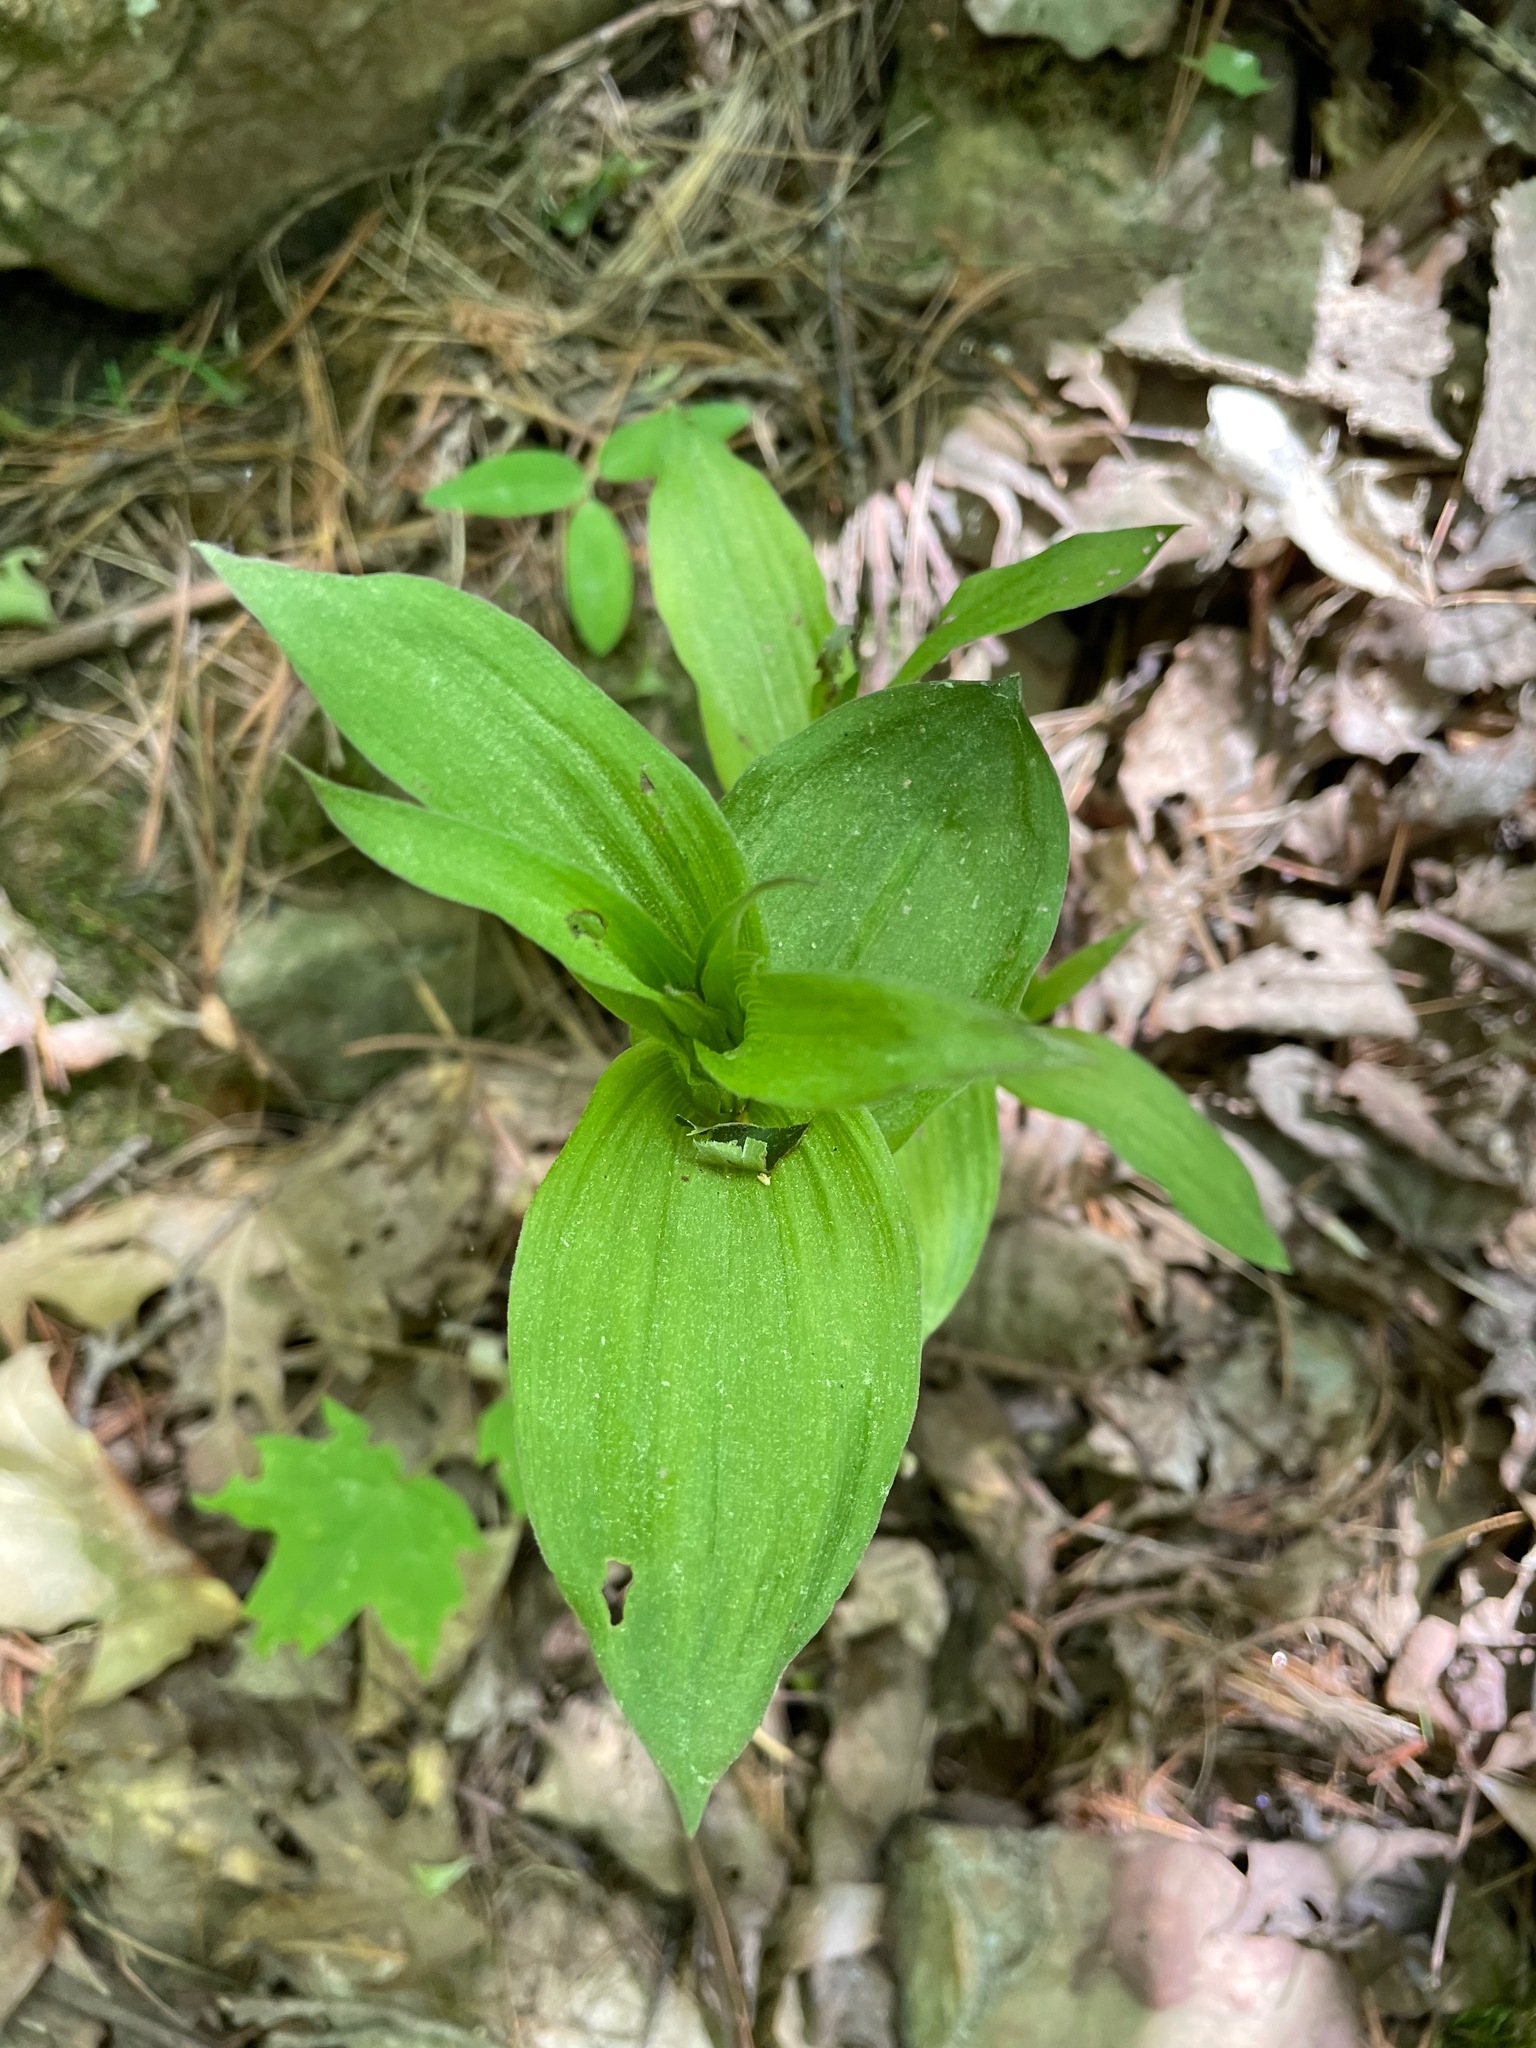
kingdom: Plantae
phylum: Tracheophyta
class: Liliopsida
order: Asparagales
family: Orchidaceae
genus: Epipactis
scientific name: Epipactis helleborine
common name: Broad-leaved helleborine
